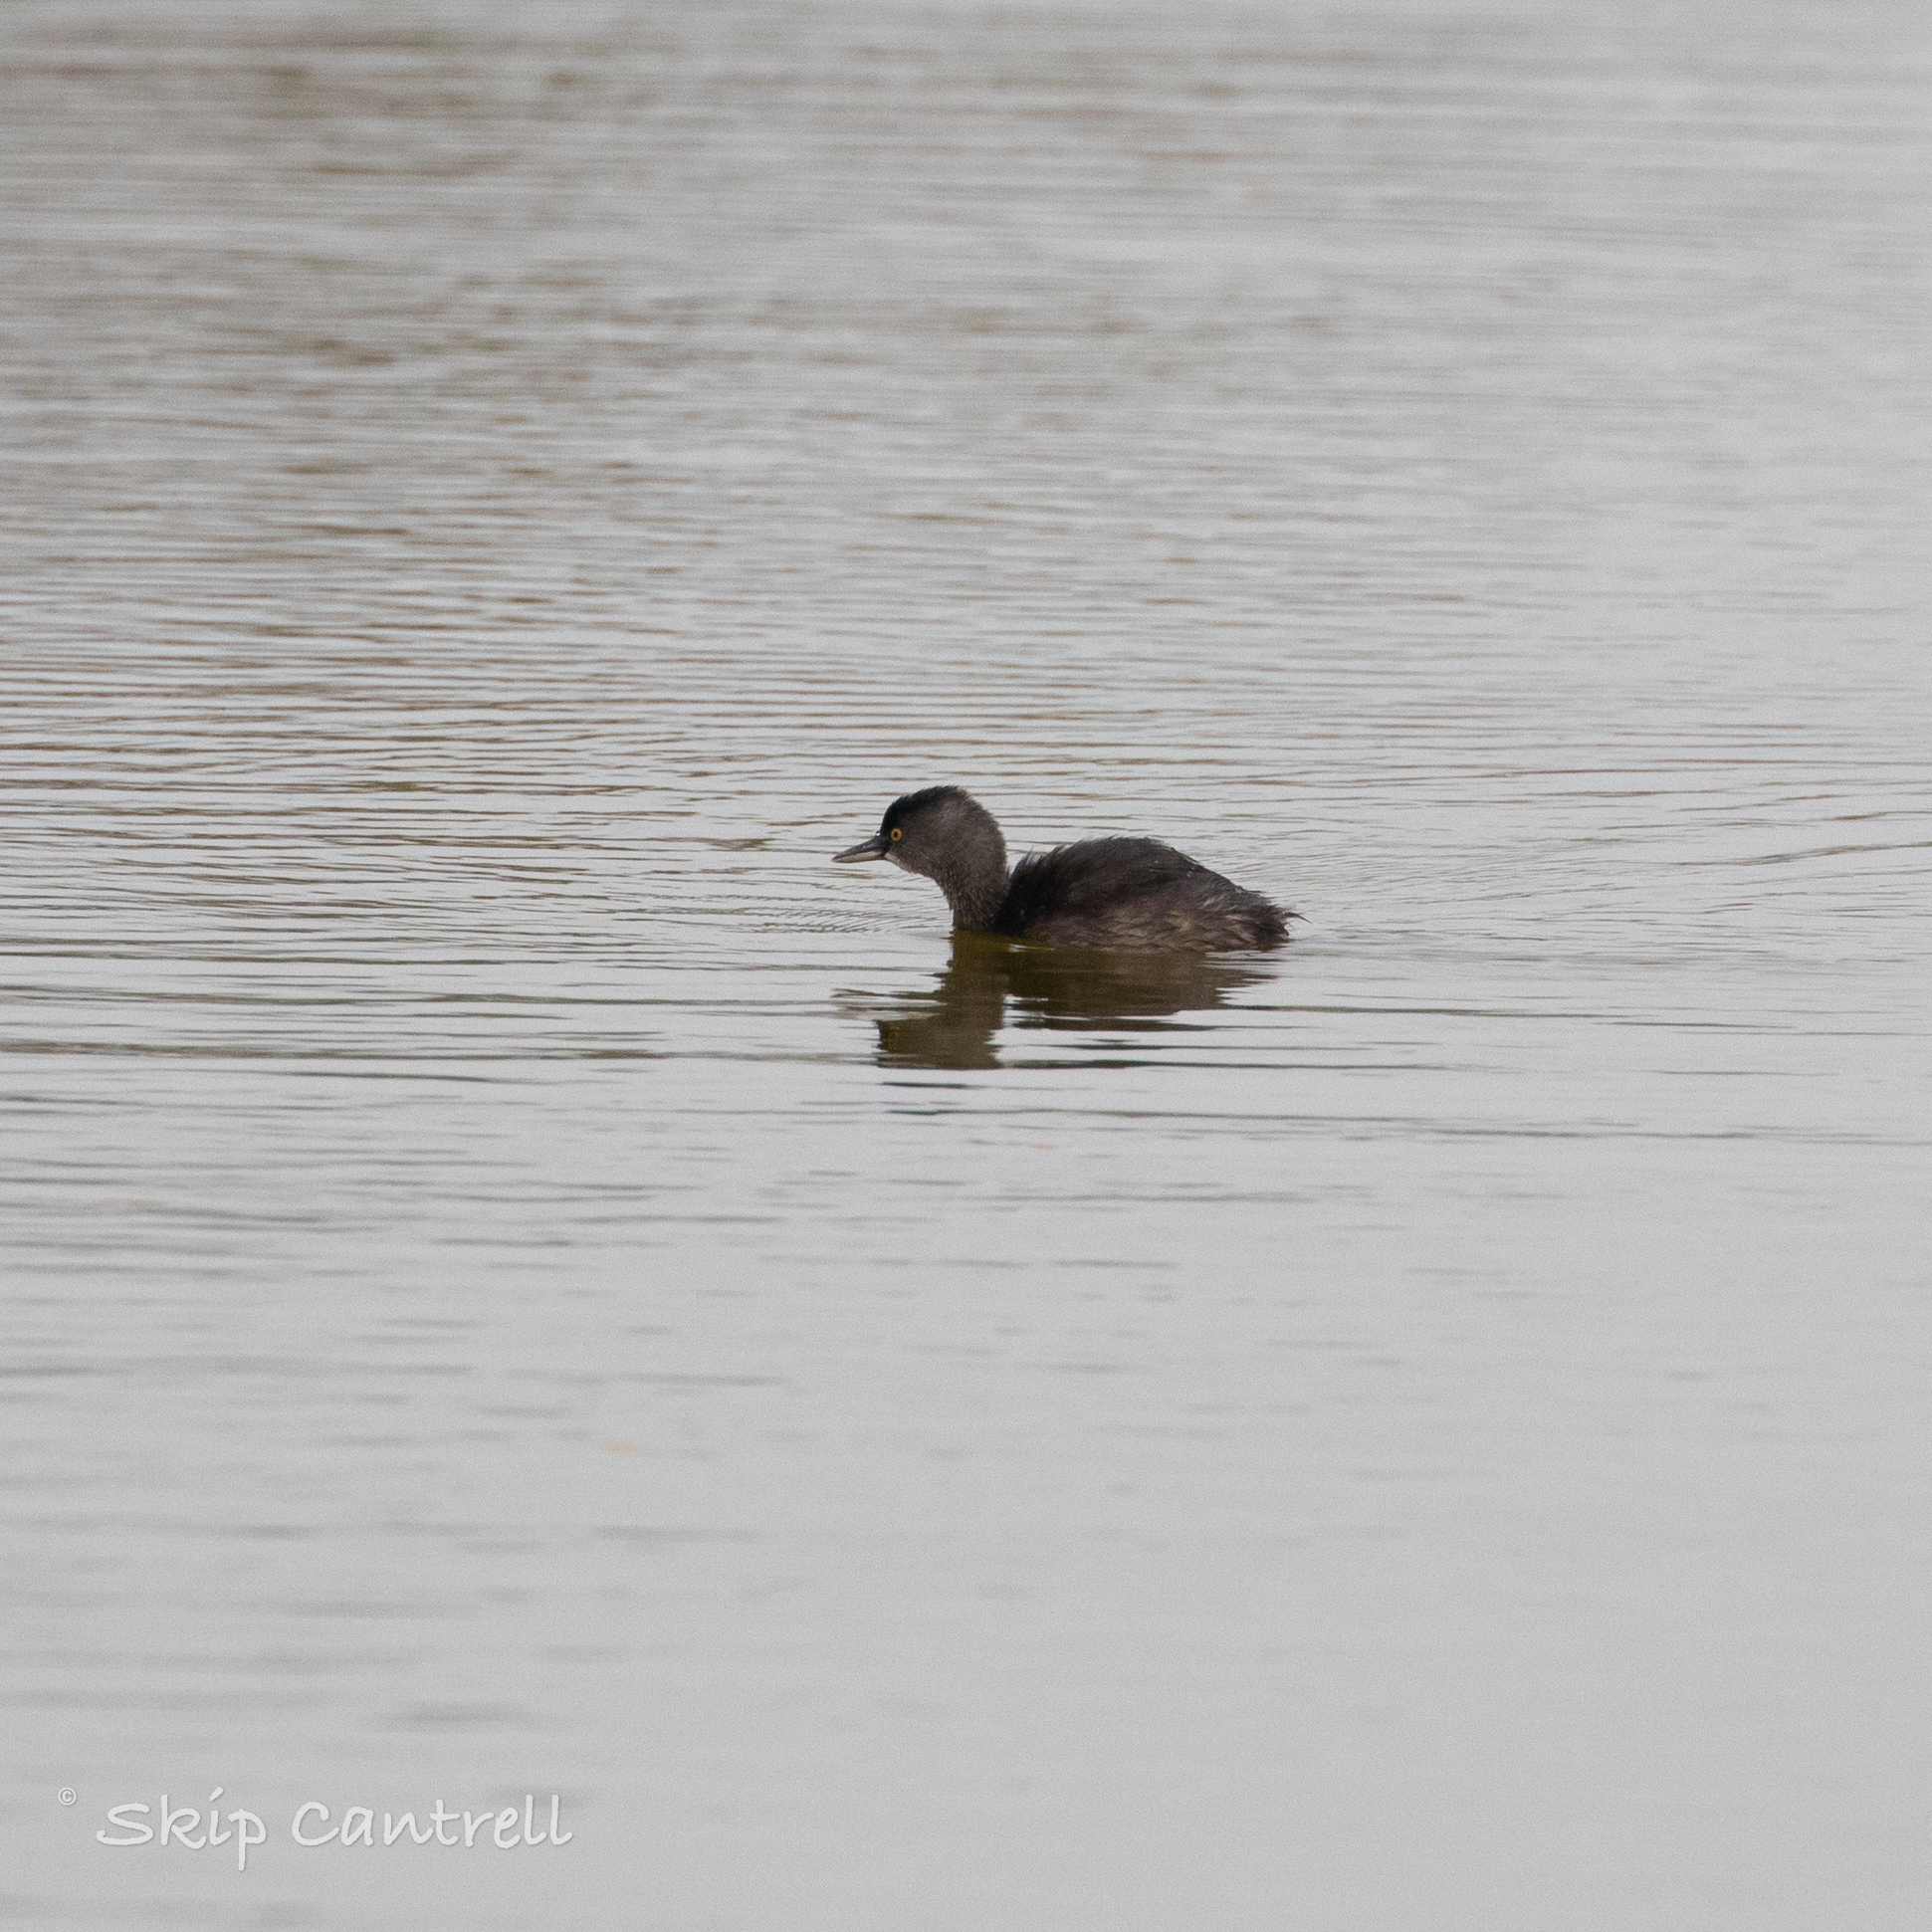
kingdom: Animalia
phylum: Chordata
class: Aves
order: Podicipediformes
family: Podicipedidae
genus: Tachybaptus
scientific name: Tachybaptus dominicus
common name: Least grebe
